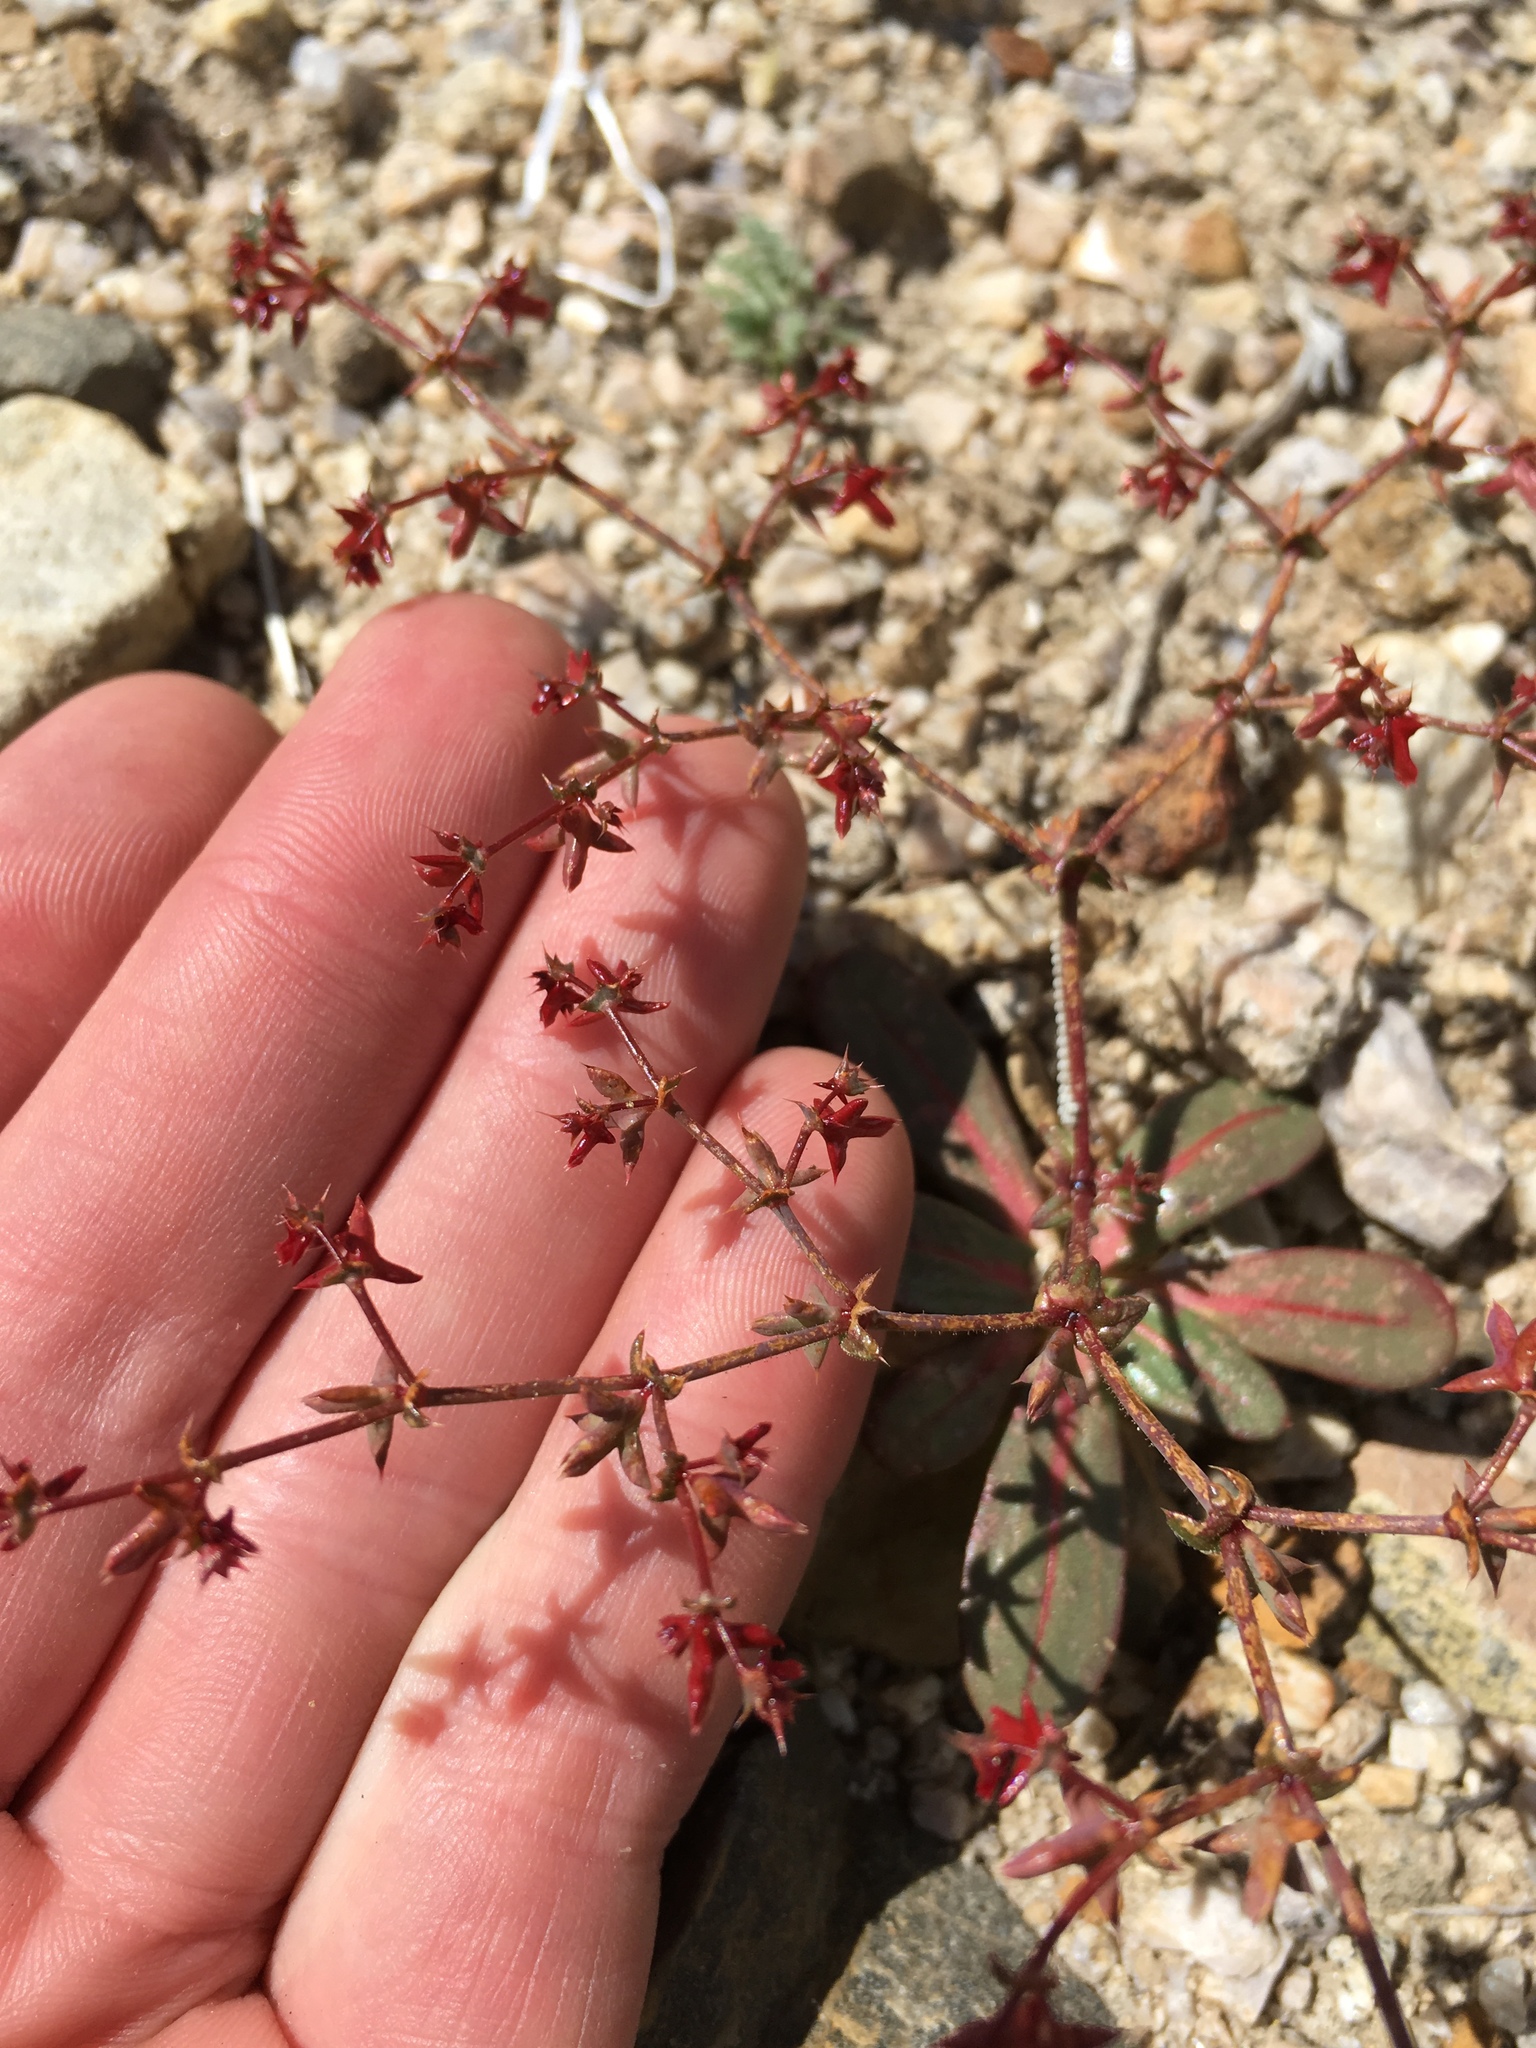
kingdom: Plantae
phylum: Tracheophyta
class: Magnoliopsida
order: Caryophyllales
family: Polygonaceae
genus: Centrostegia
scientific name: Centrostegia thurberi
